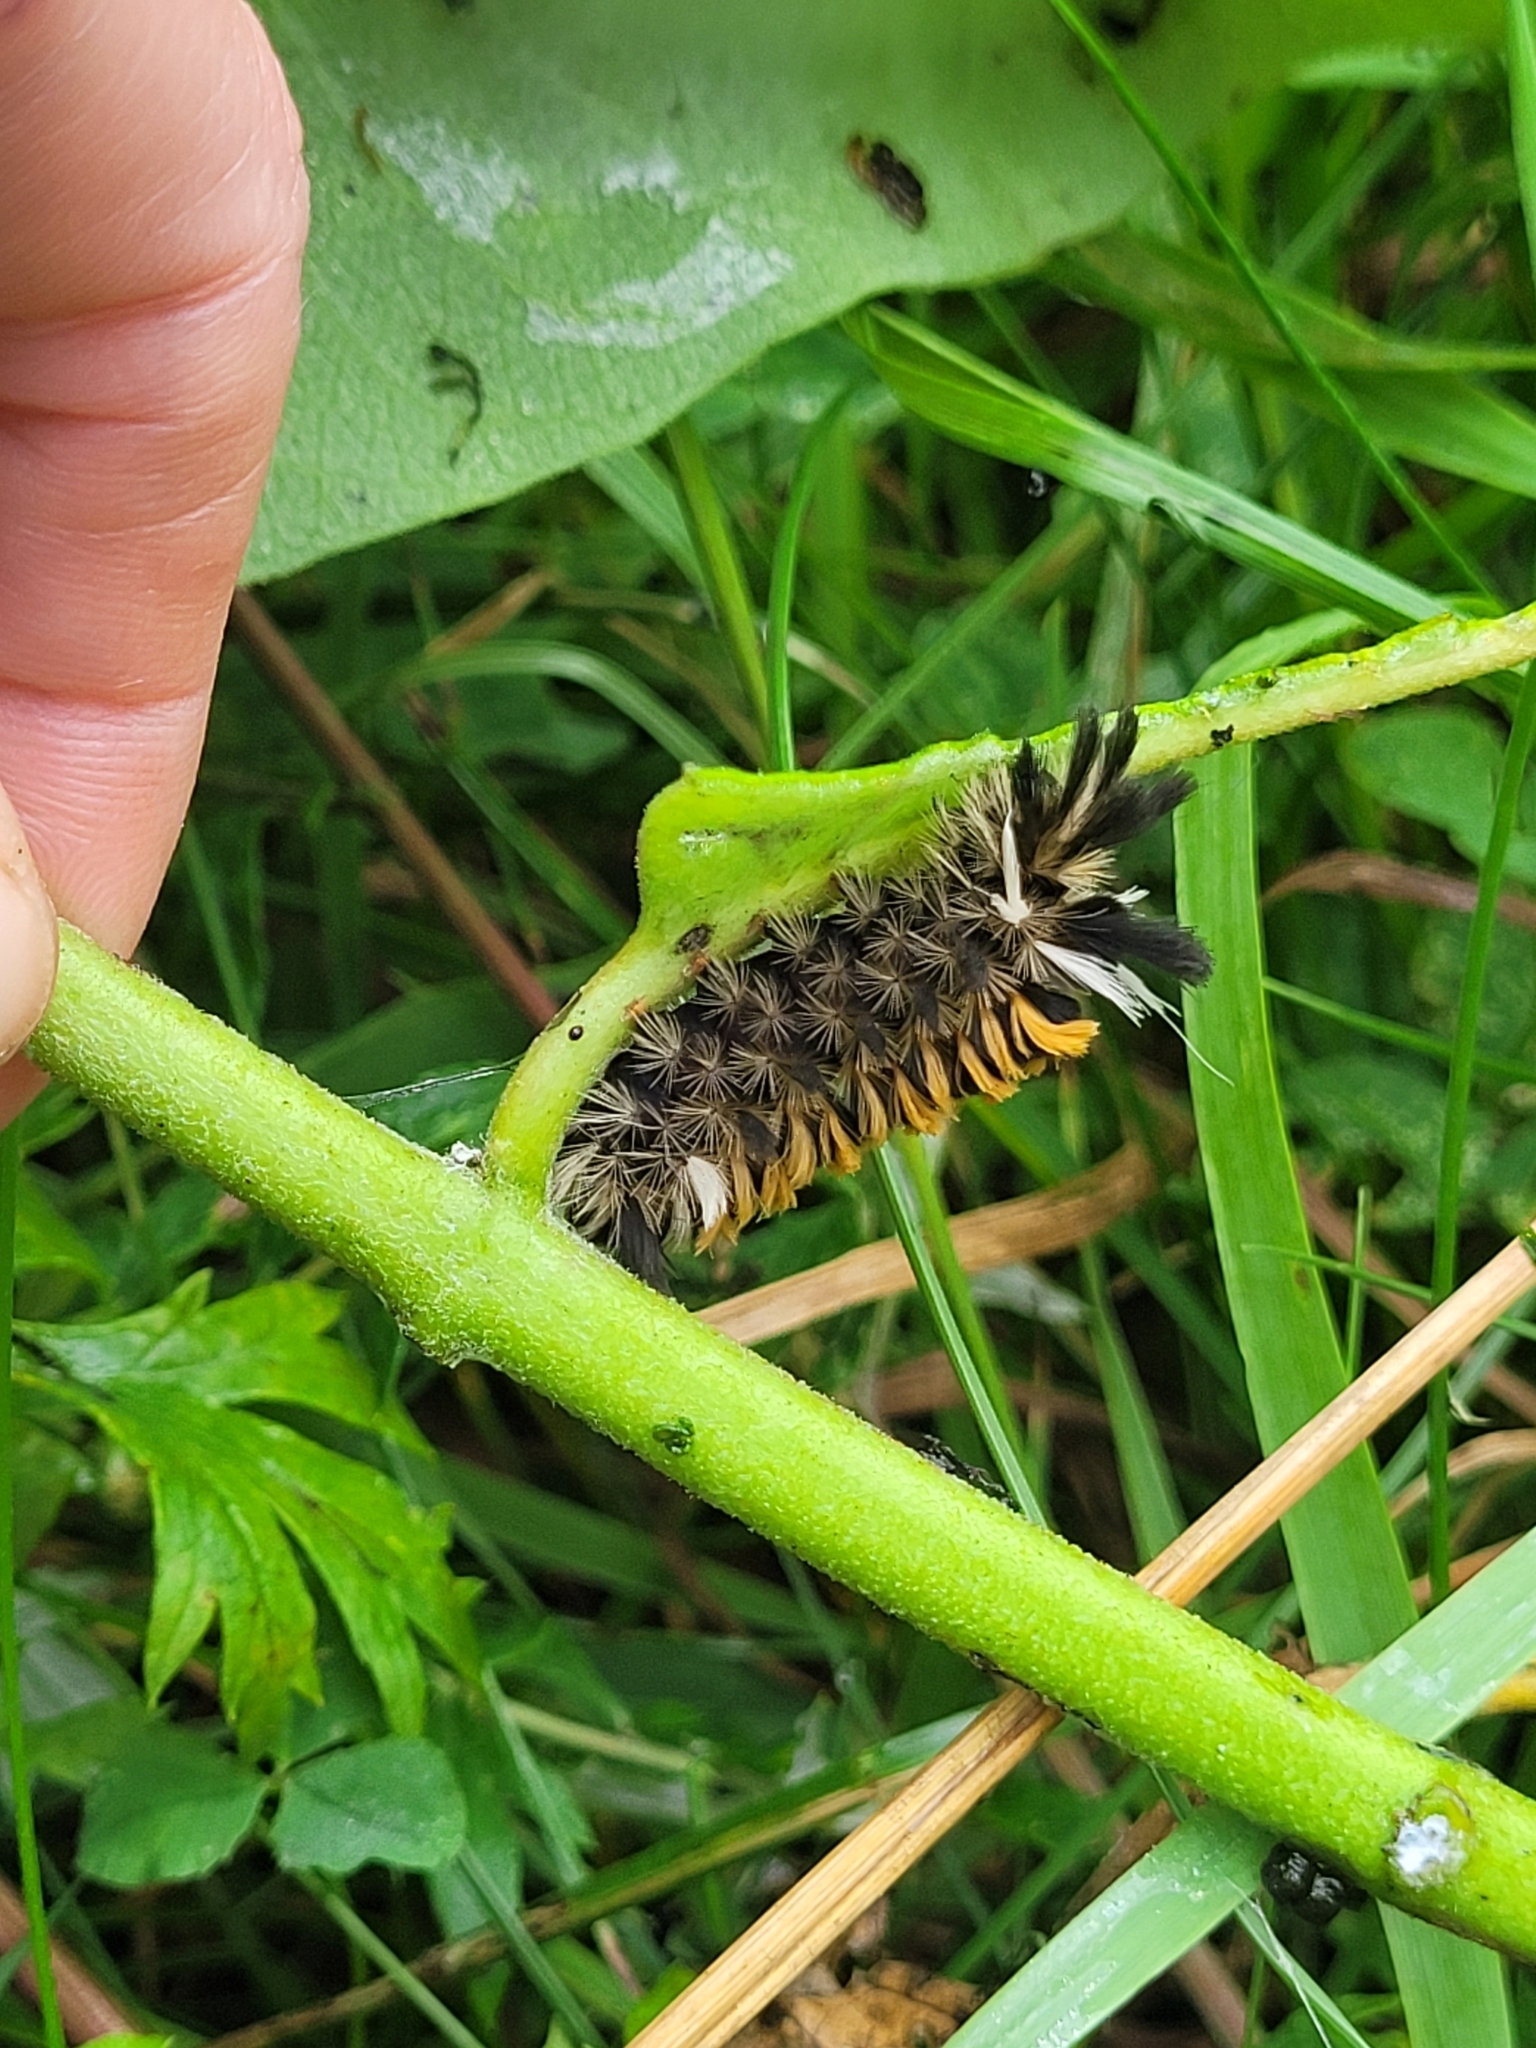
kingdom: Animalia
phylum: Arthropoda
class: Insecta
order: Lepidoptera
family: Erebidae
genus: Euchaetes
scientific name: Euchaetes egle
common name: Milkweed tussock moth
